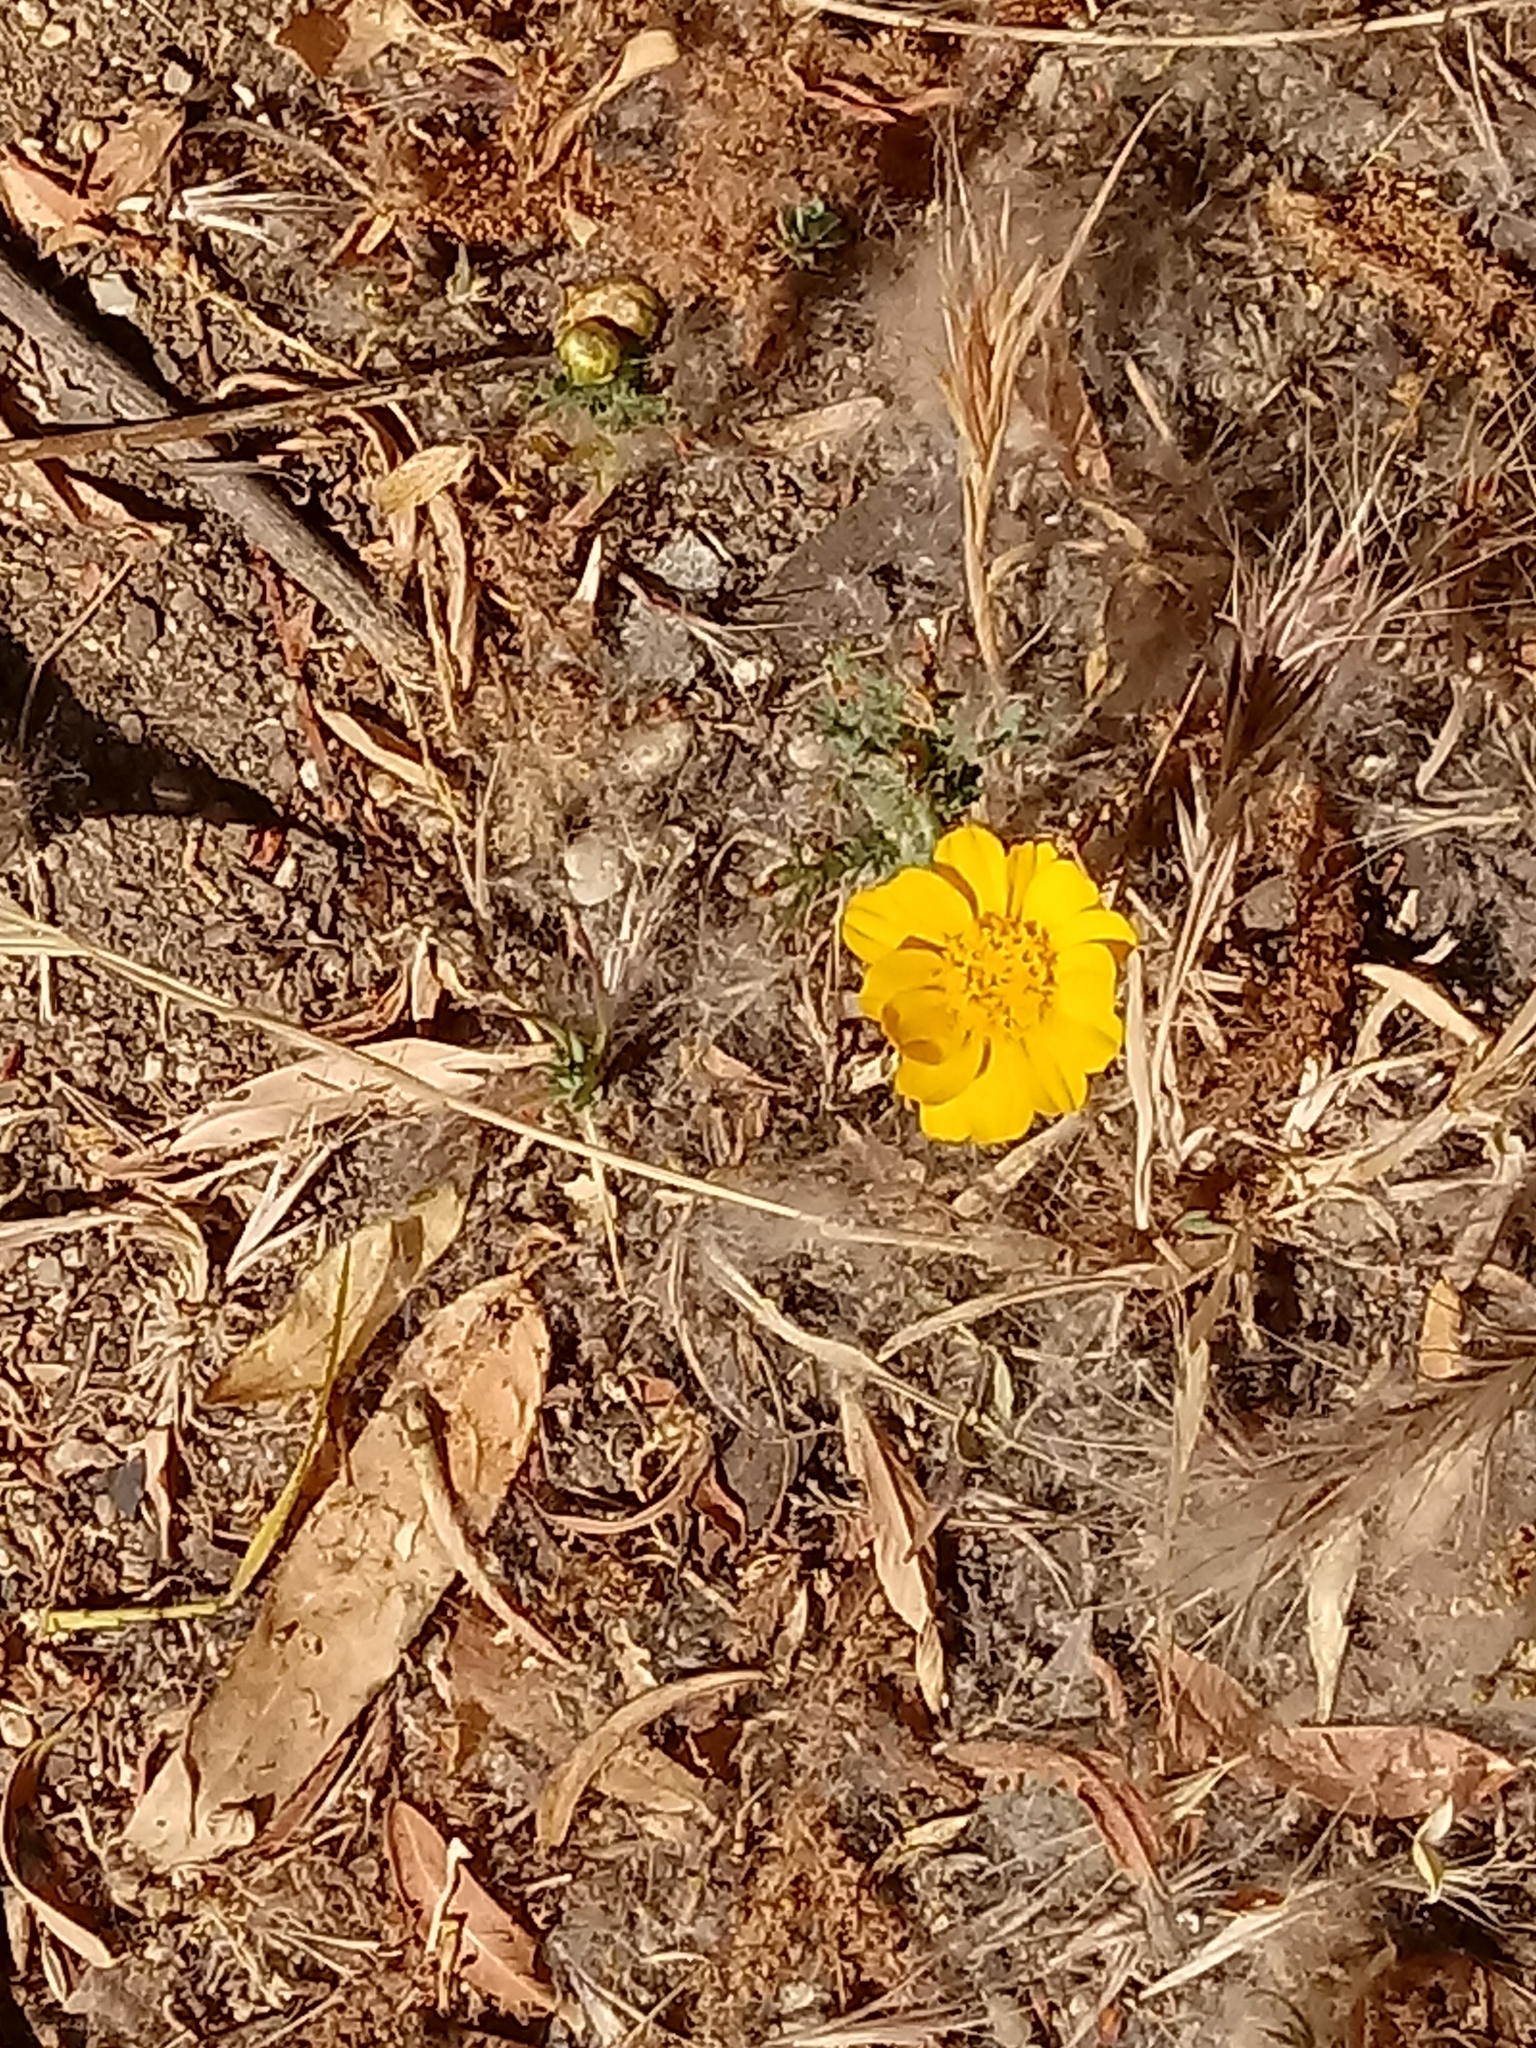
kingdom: Plantae
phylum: Tracheophyta
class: Magnoliopsida
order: Asterales
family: Asteraceae
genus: Glebionis
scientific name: Glebionis coronaria
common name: Crowndaisy
